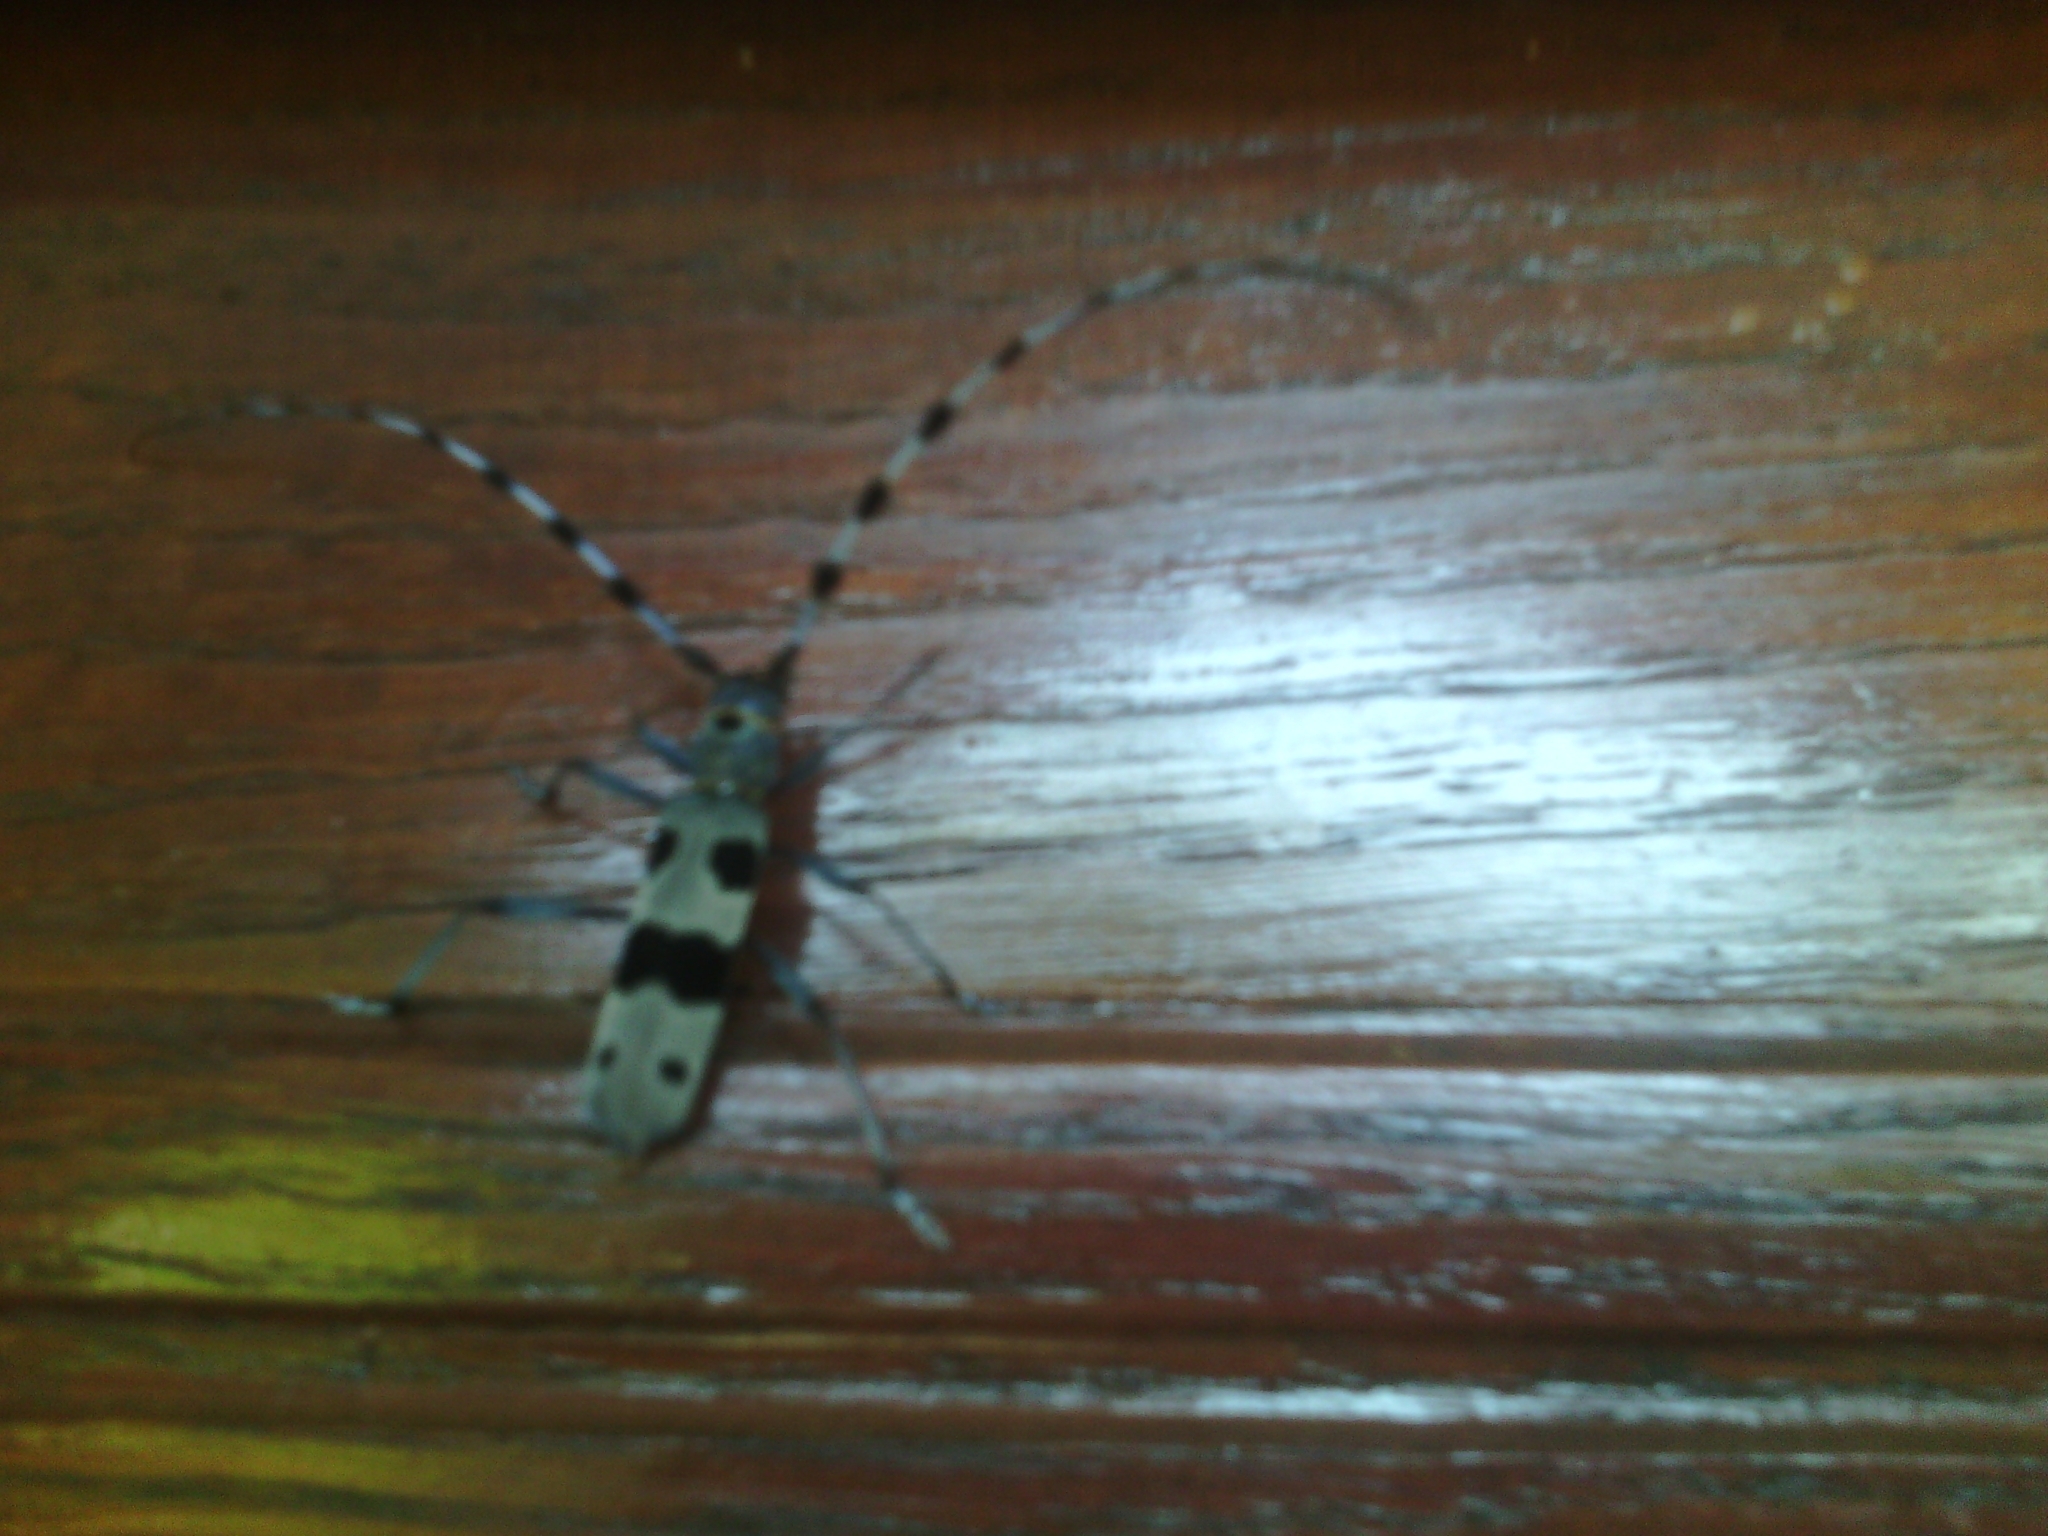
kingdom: Animalia
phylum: Arthropoda
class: Insecta
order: Coleoptera
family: Cerambycidae
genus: Rosalia
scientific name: Rosalia alpina
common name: Rosalia longicorn
